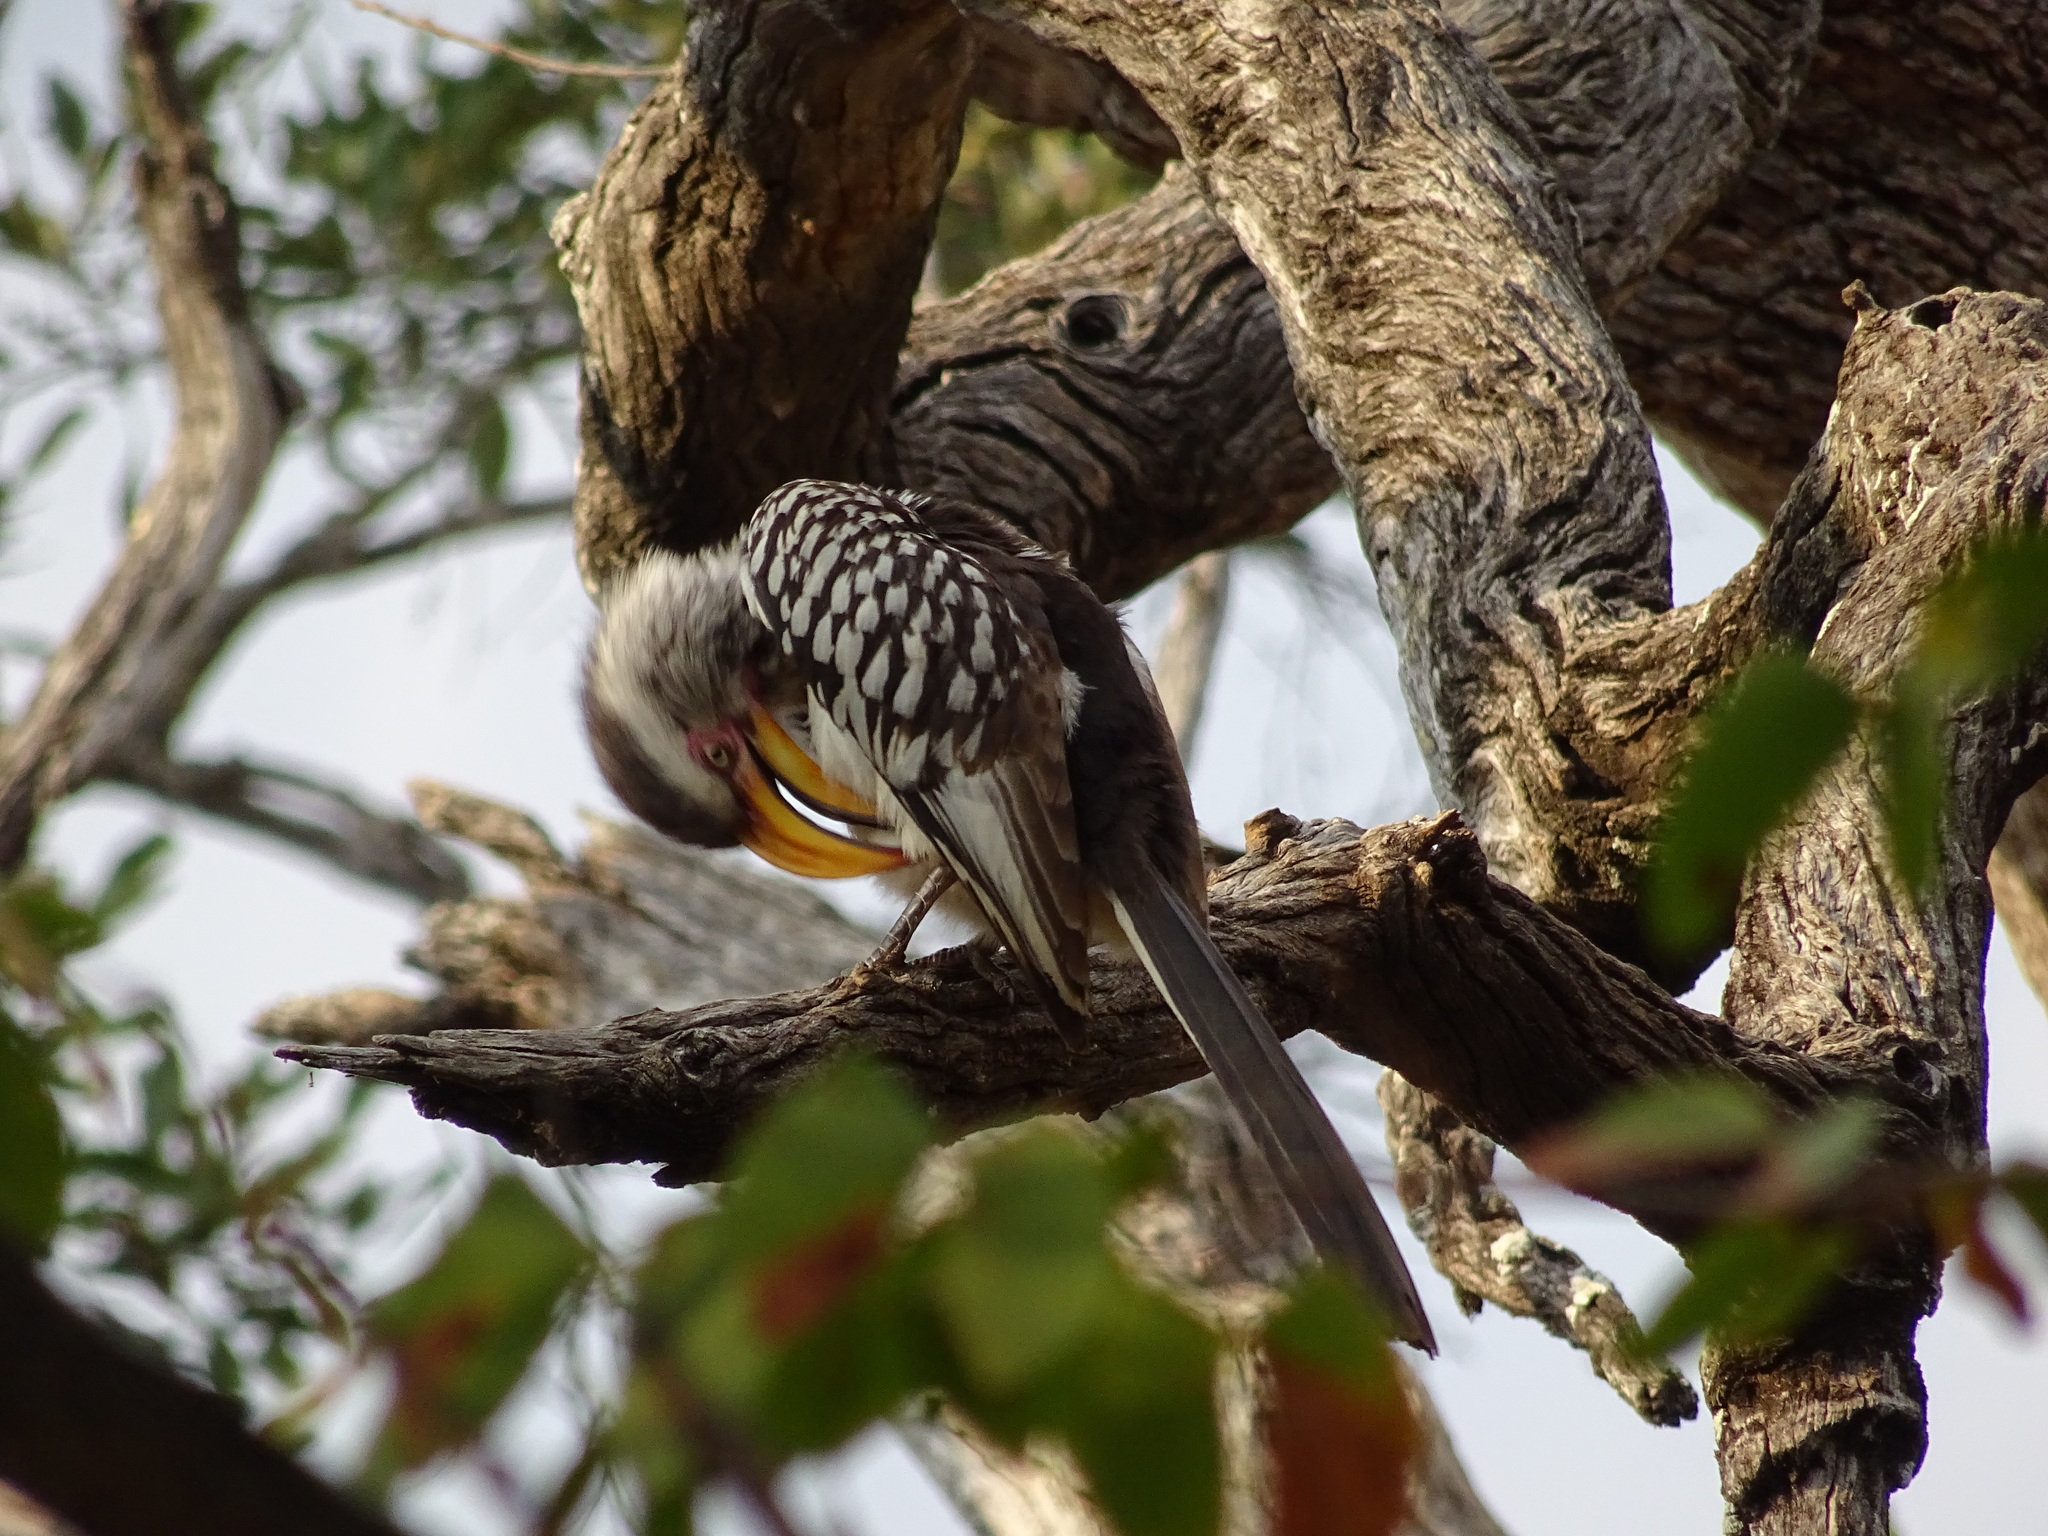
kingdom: Animalia
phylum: Chordata
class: Aves
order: Bucerotiformes
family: Bucerotidae
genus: Tockus
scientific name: Tockus leucomelas
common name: Southern yellow-billed hornbill
